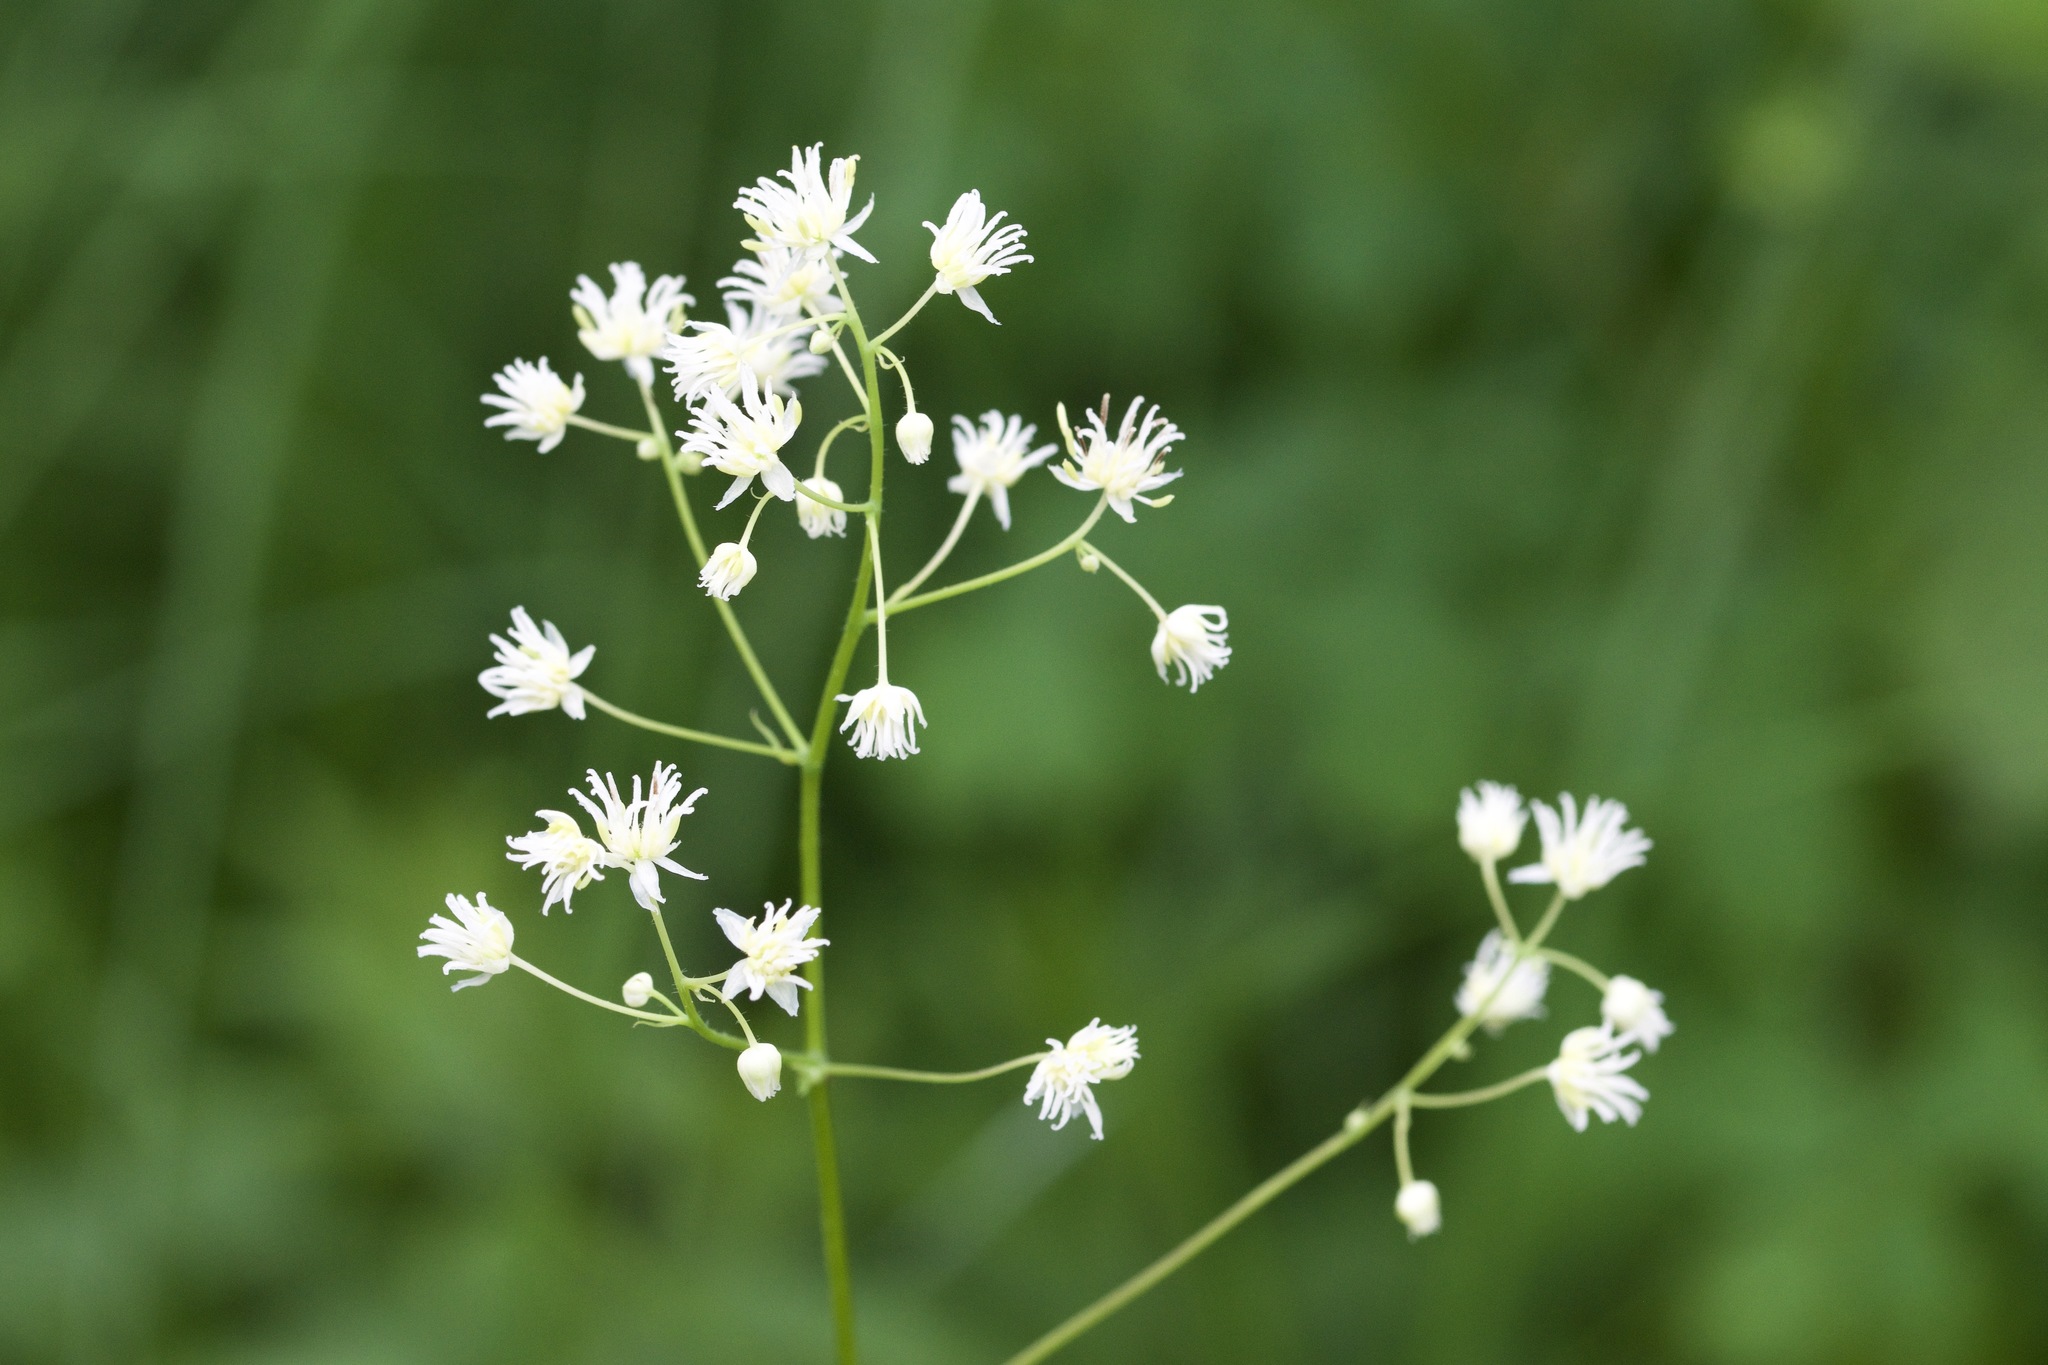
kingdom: Plantae
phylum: Tracheophyta
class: Magnoliopsida
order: Ranunculales
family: Ranunculaceae
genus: Thalictrum
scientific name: Thalictrum pubescens
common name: King-of-the-meadow
